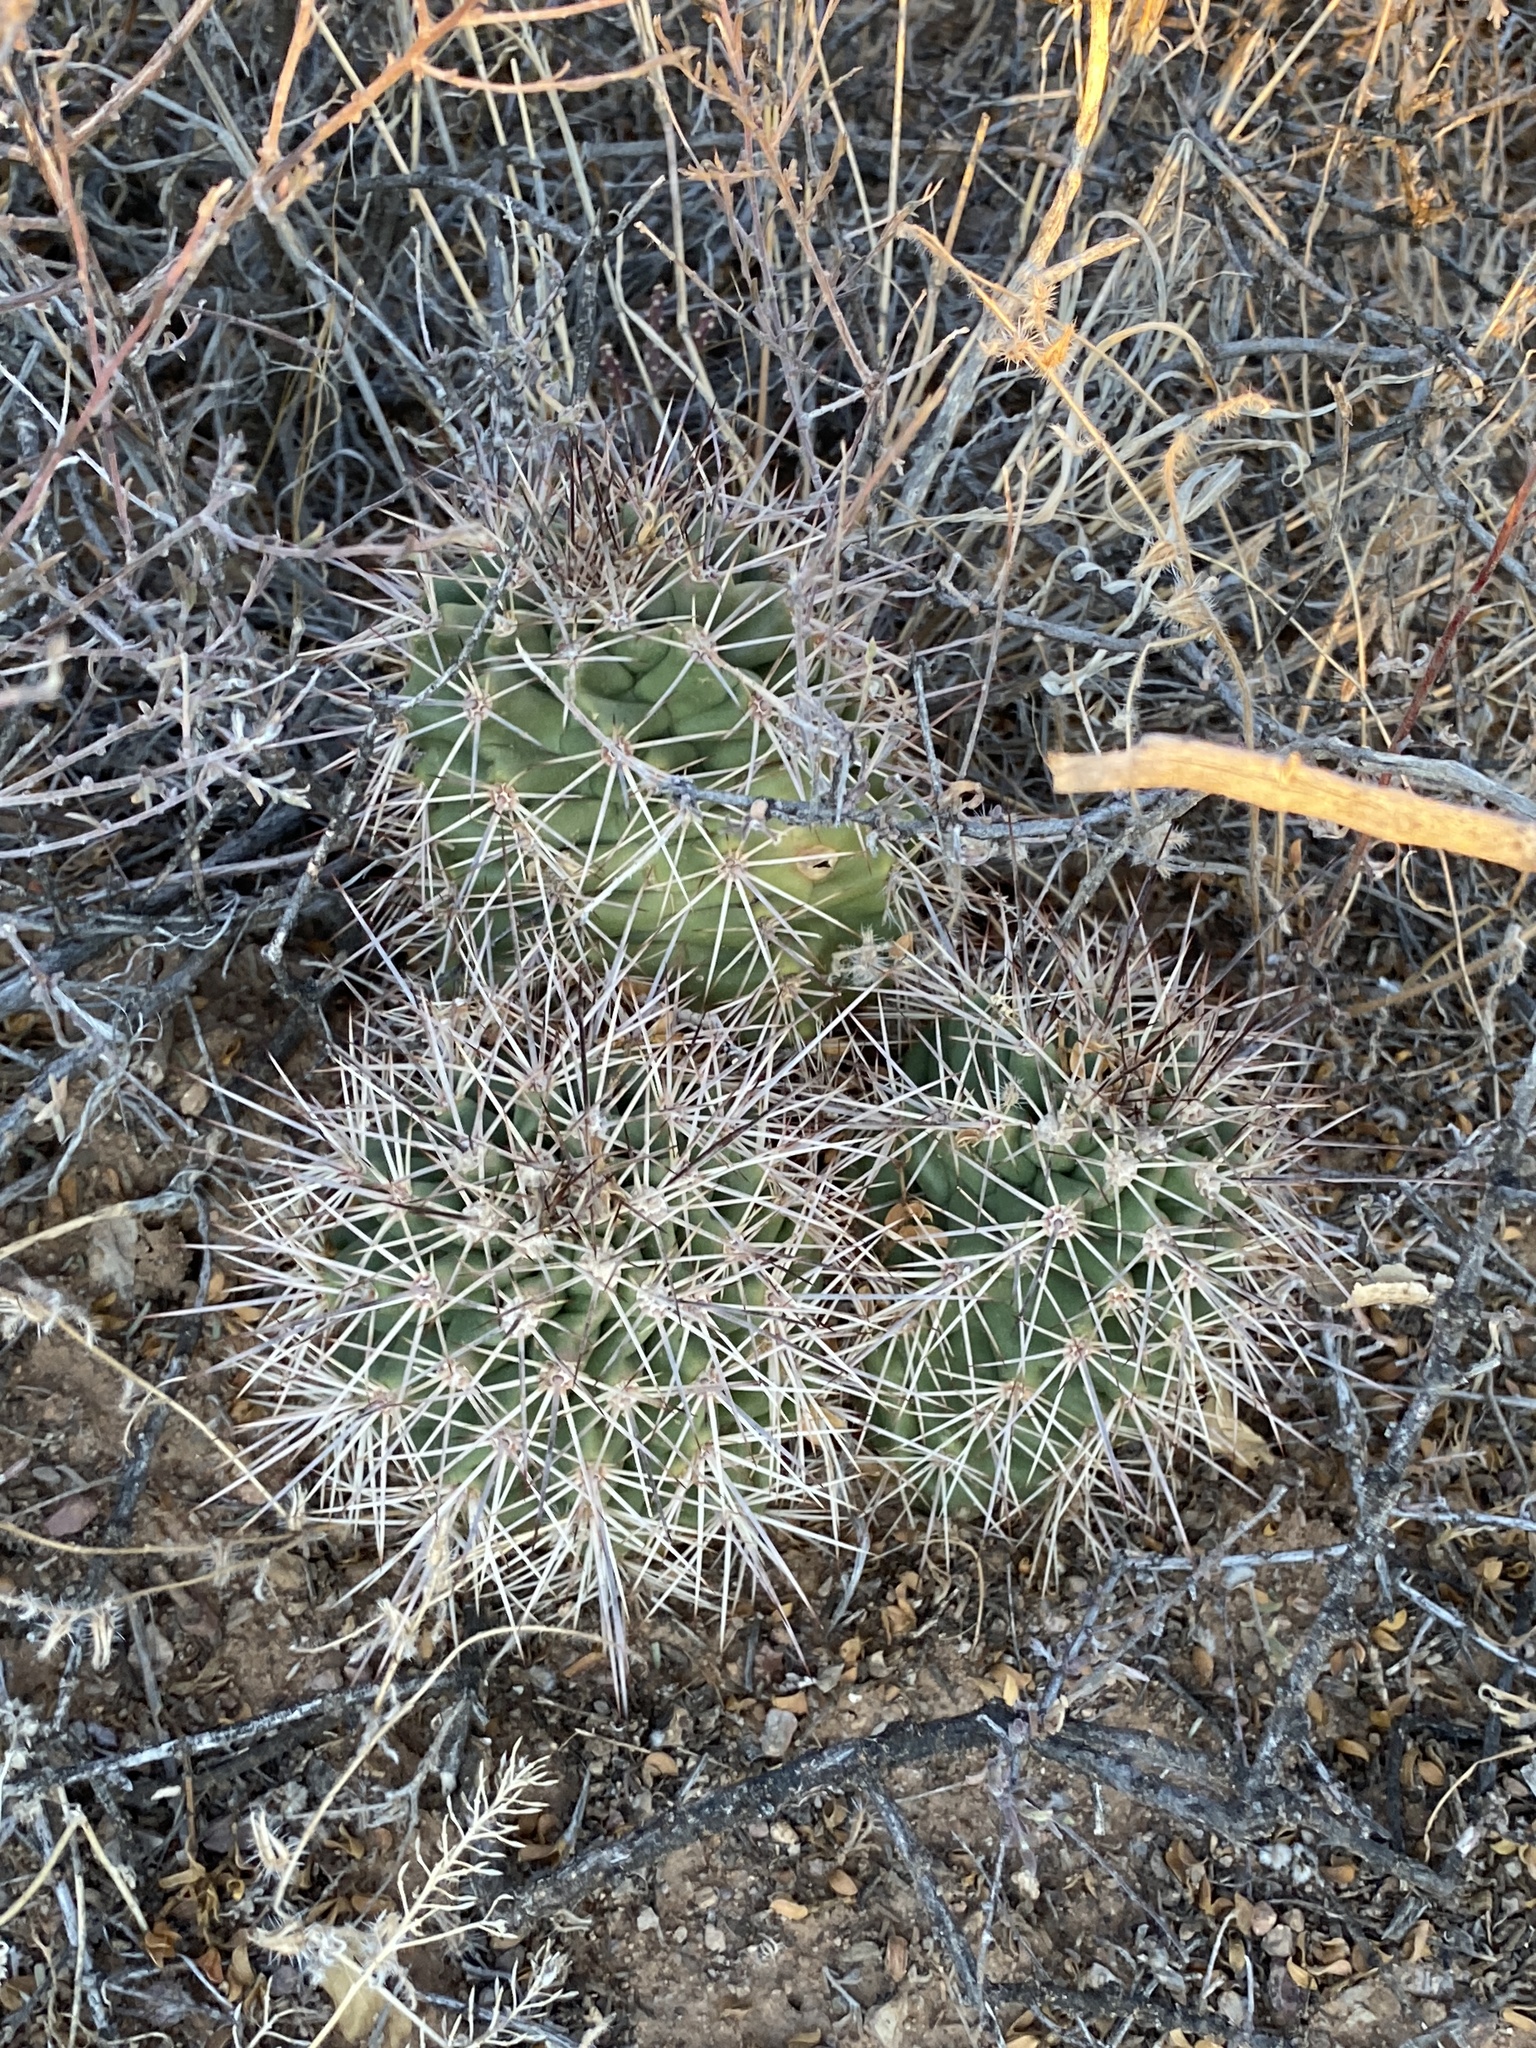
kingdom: Plantae
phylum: Tracheophyta
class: Magnoliopsida
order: Caryophyllales
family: Cactaceae
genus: Echinocereus
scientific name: Echinocereus coccineus
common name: Scarlet hedgehog cactus
